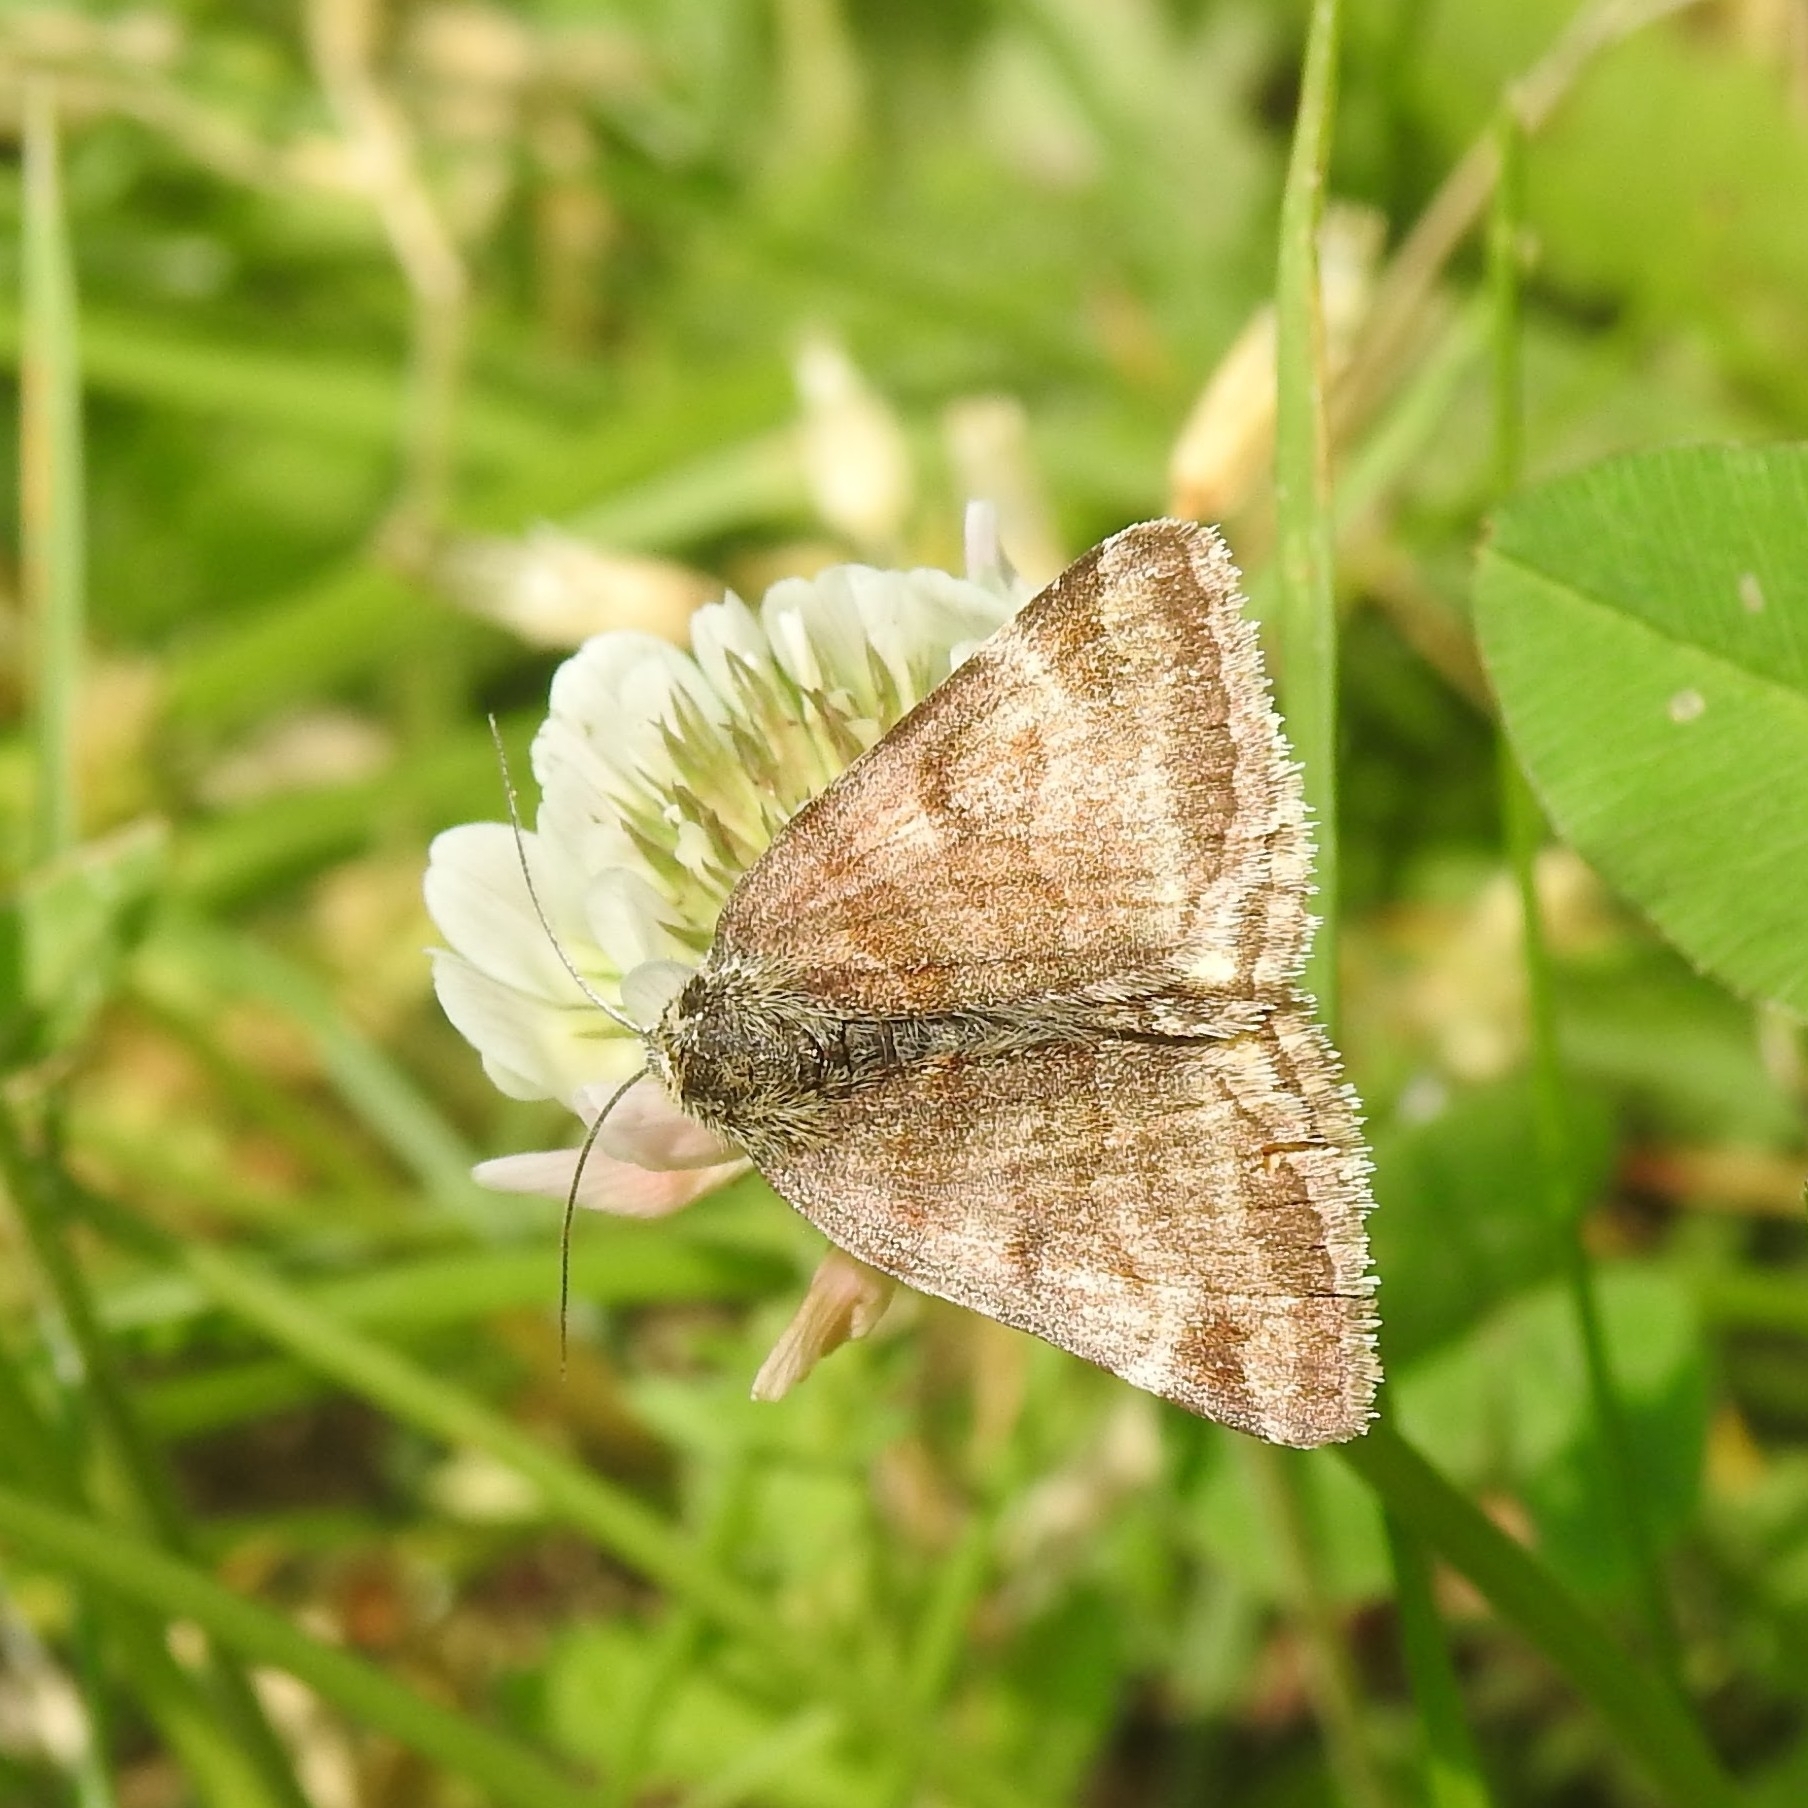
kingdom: Animalia
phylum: Arthropoda
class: Insecta
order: Lepidoptera
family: Erebidae
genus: Euclidia
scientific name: Euclidia glyphica
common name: Burnet companion
